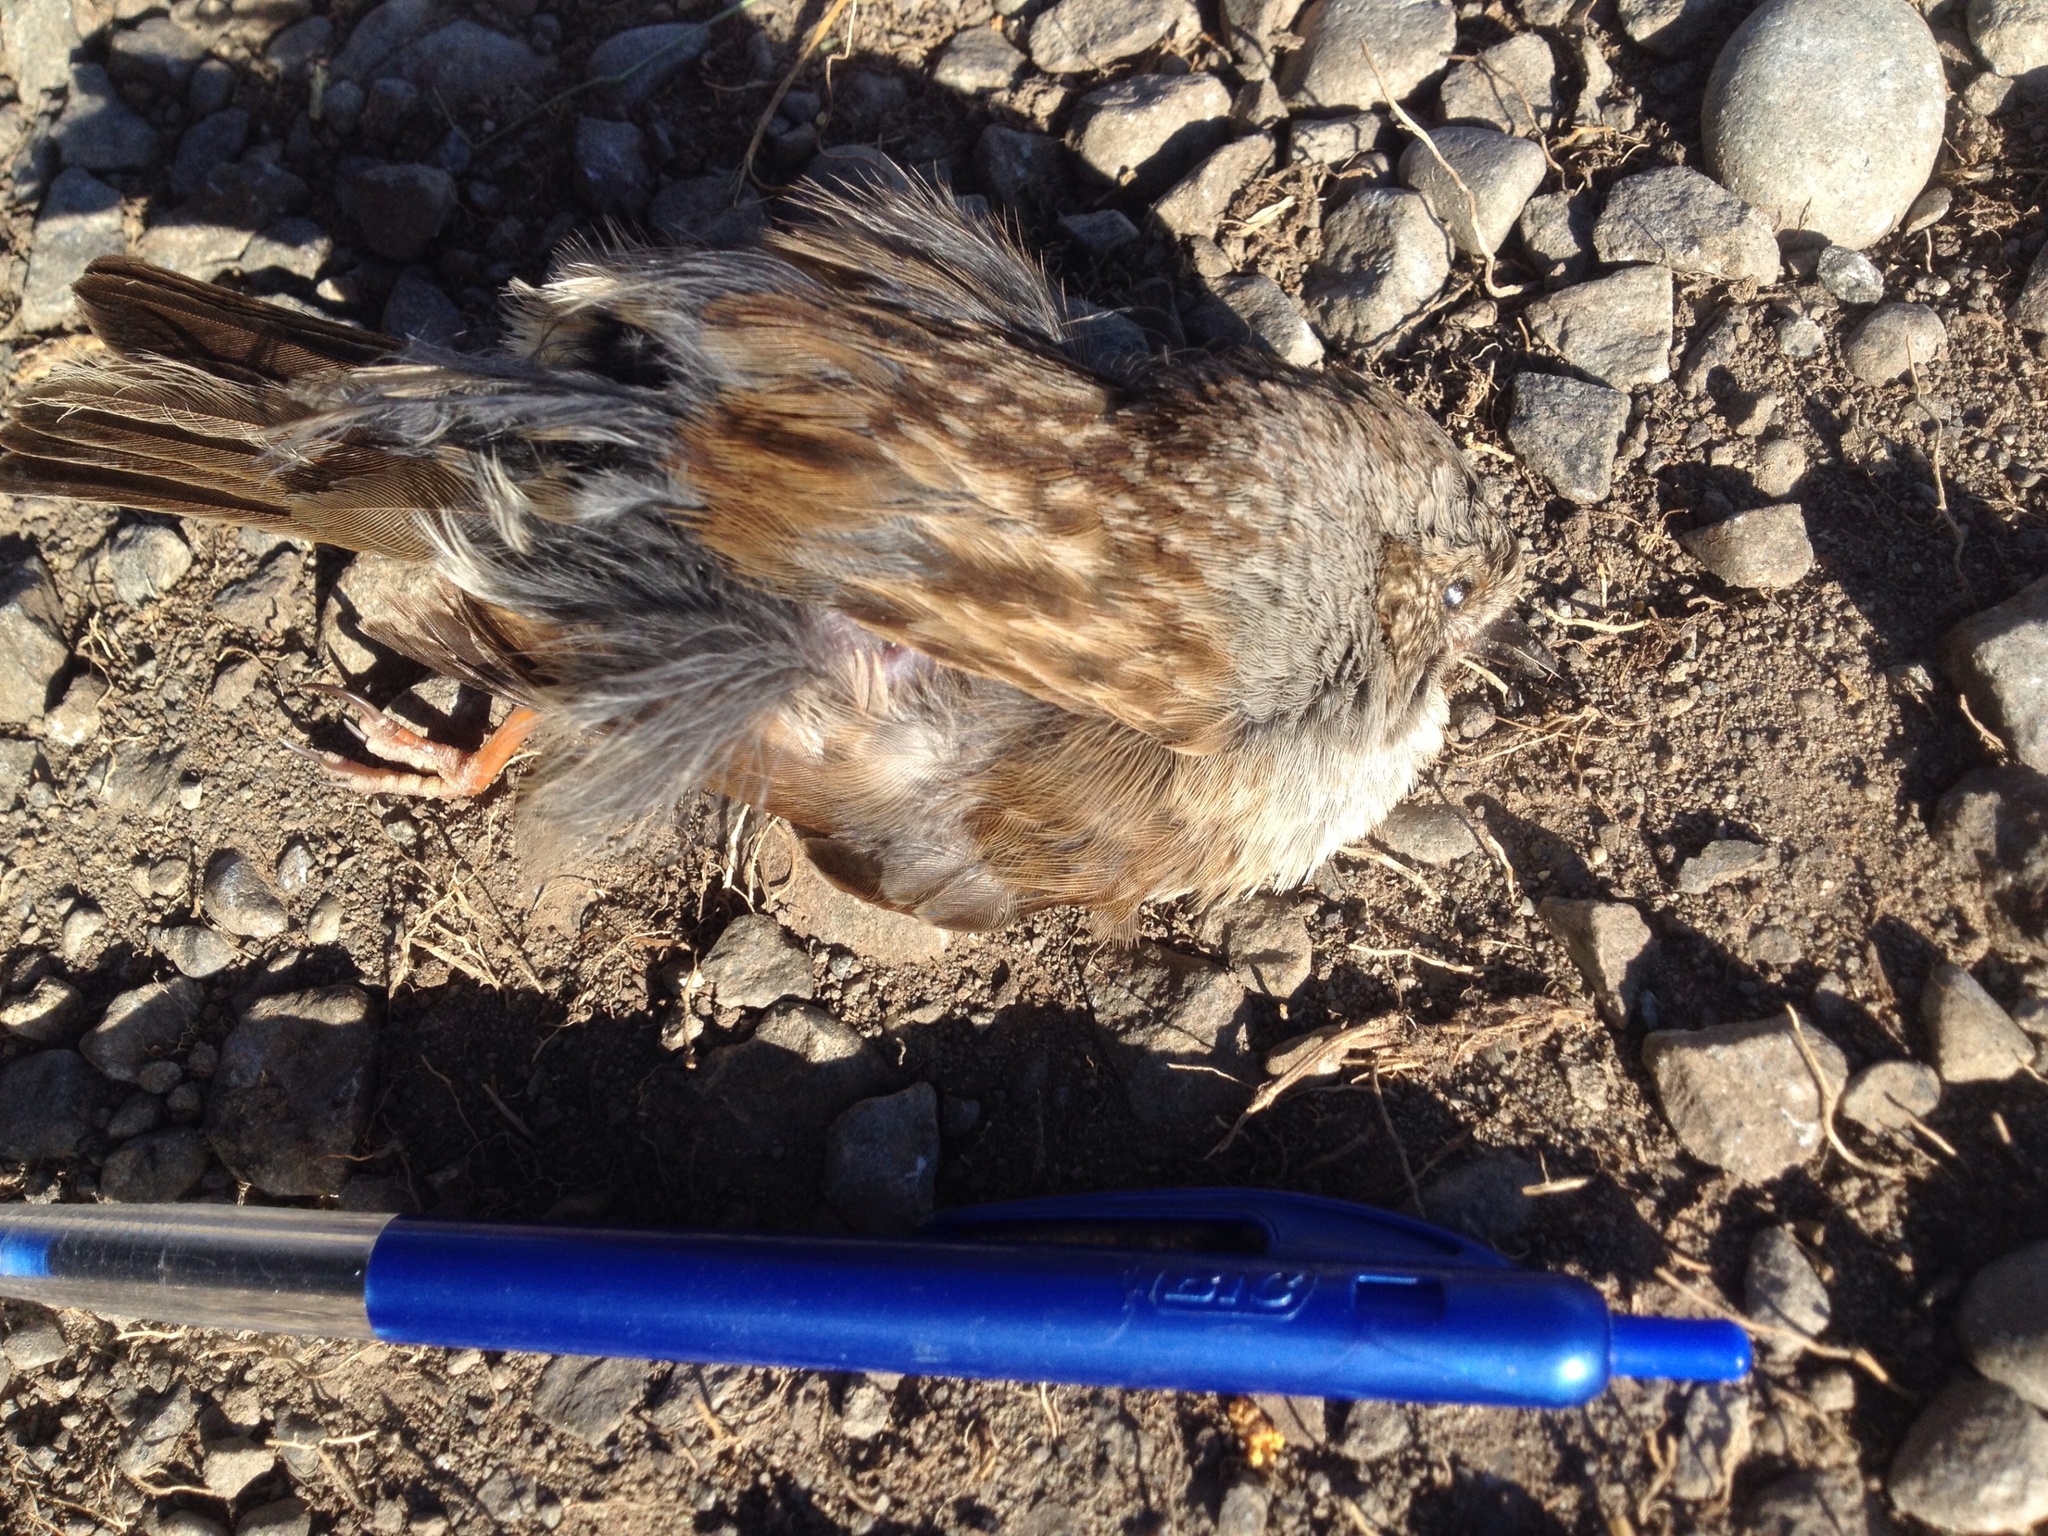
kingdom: Animalia
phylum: Chordata
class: Aves
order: Passeriformes
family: Prunellidae
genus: Prunella
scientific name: Prunella modularis
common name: Dunnock
